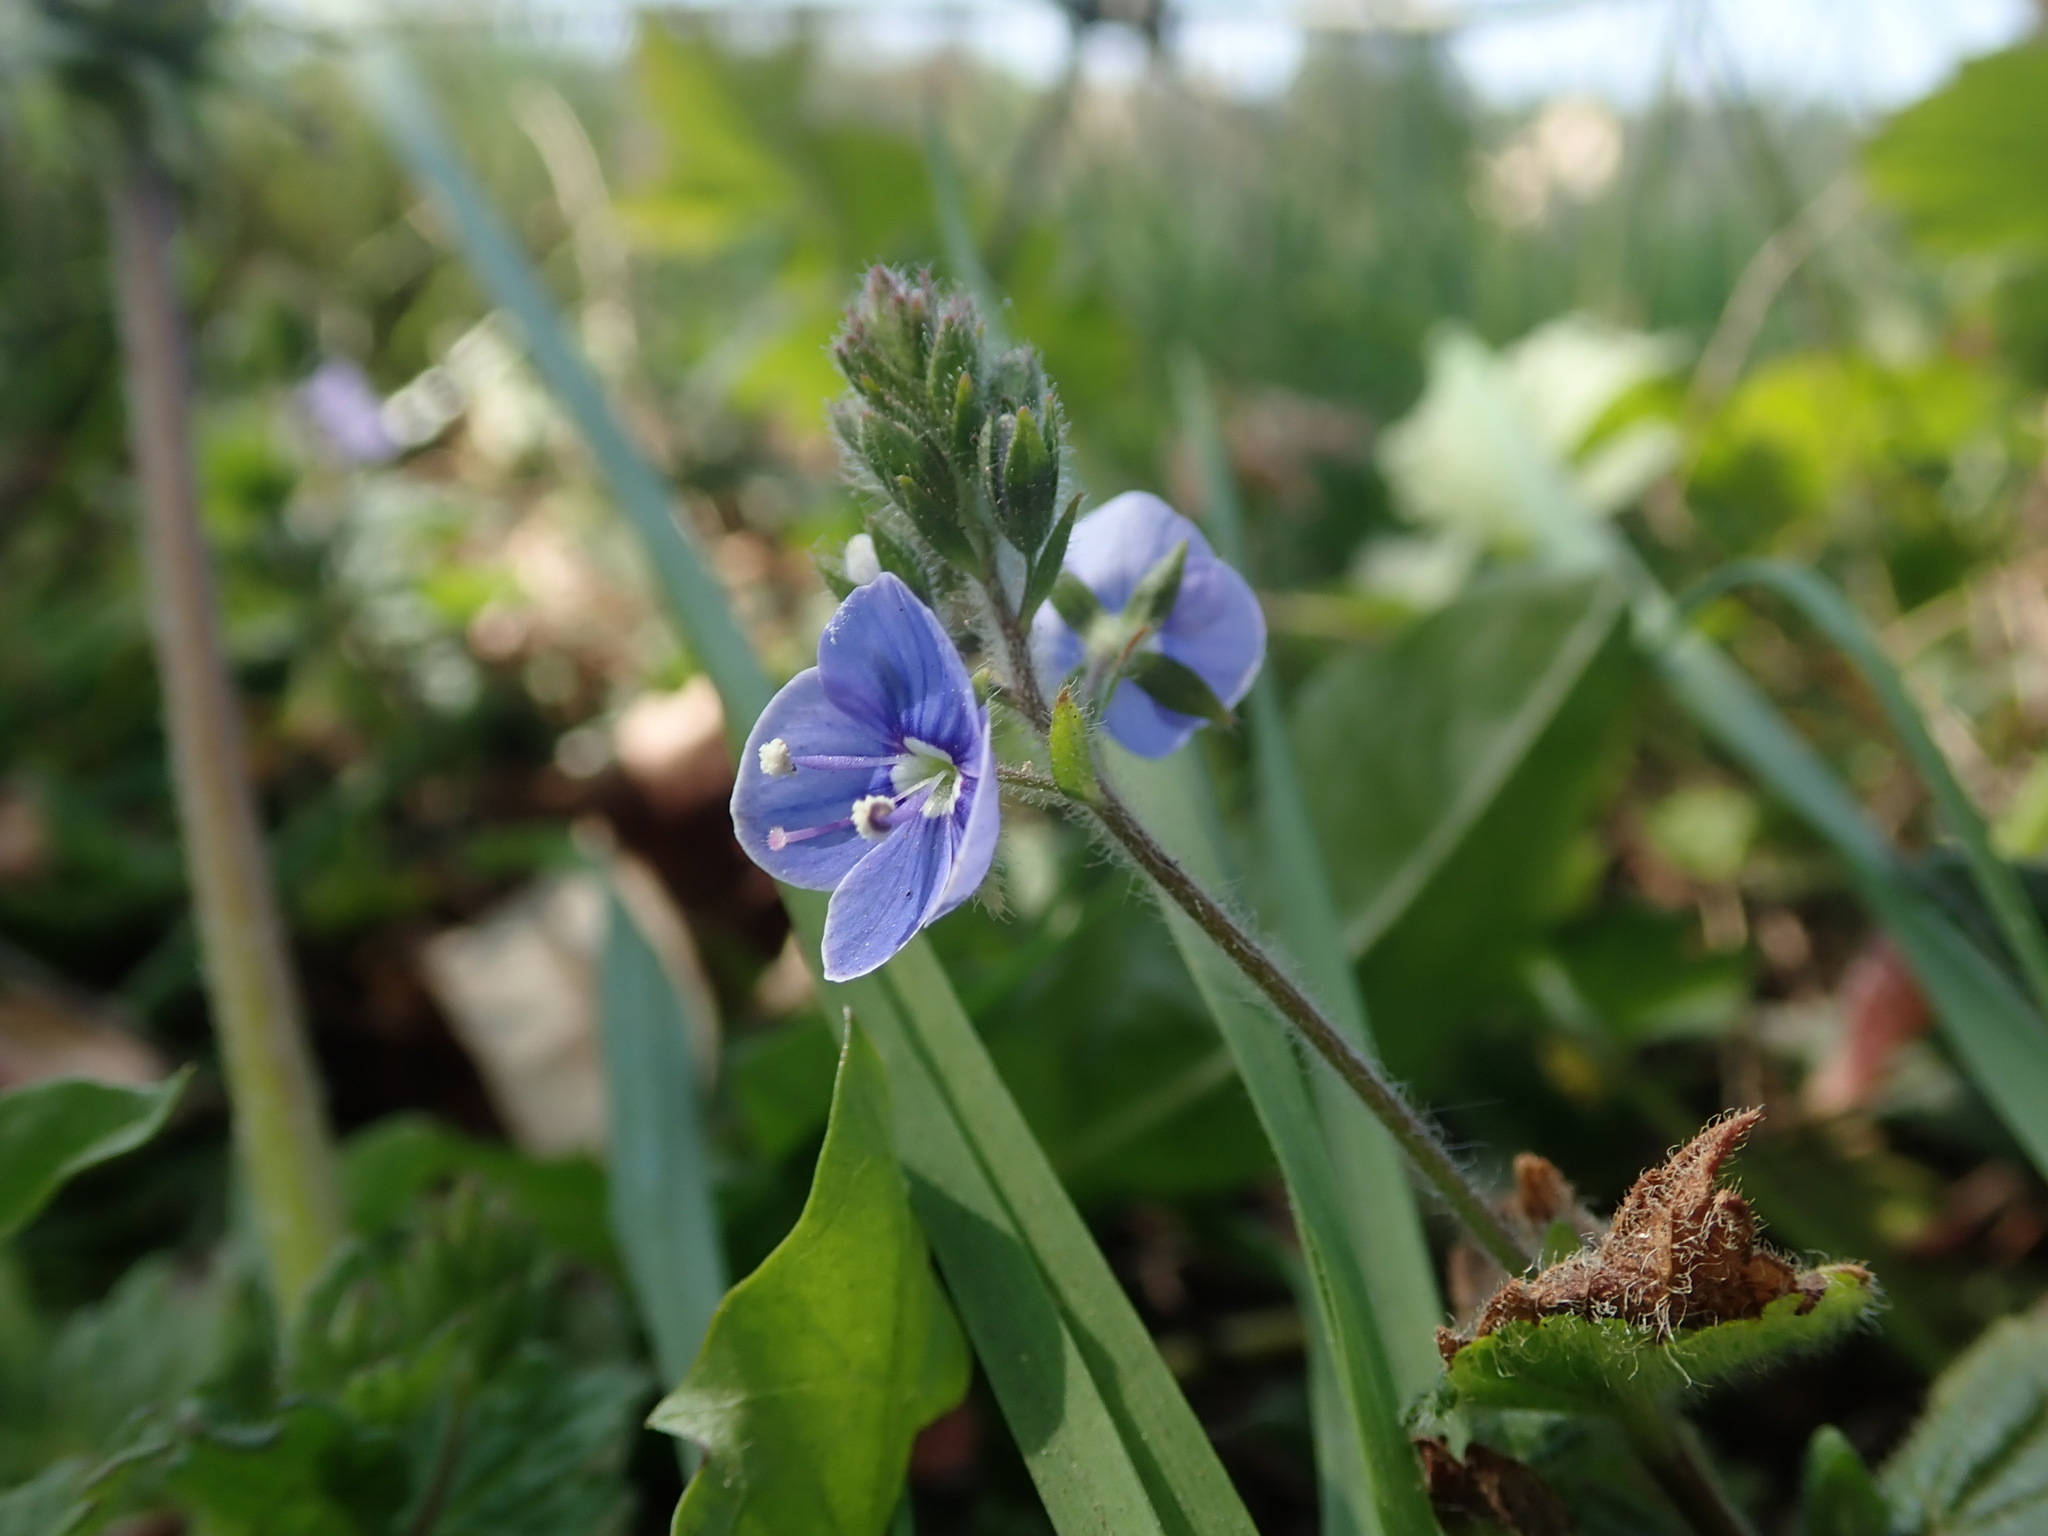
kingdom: Plantae
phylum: Tracheophyta
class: Magnoliopsida
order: Lamiales
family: Plantaginaceae
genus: Veronica
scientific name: Veronica chamaedrys
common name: Germander speedwell
